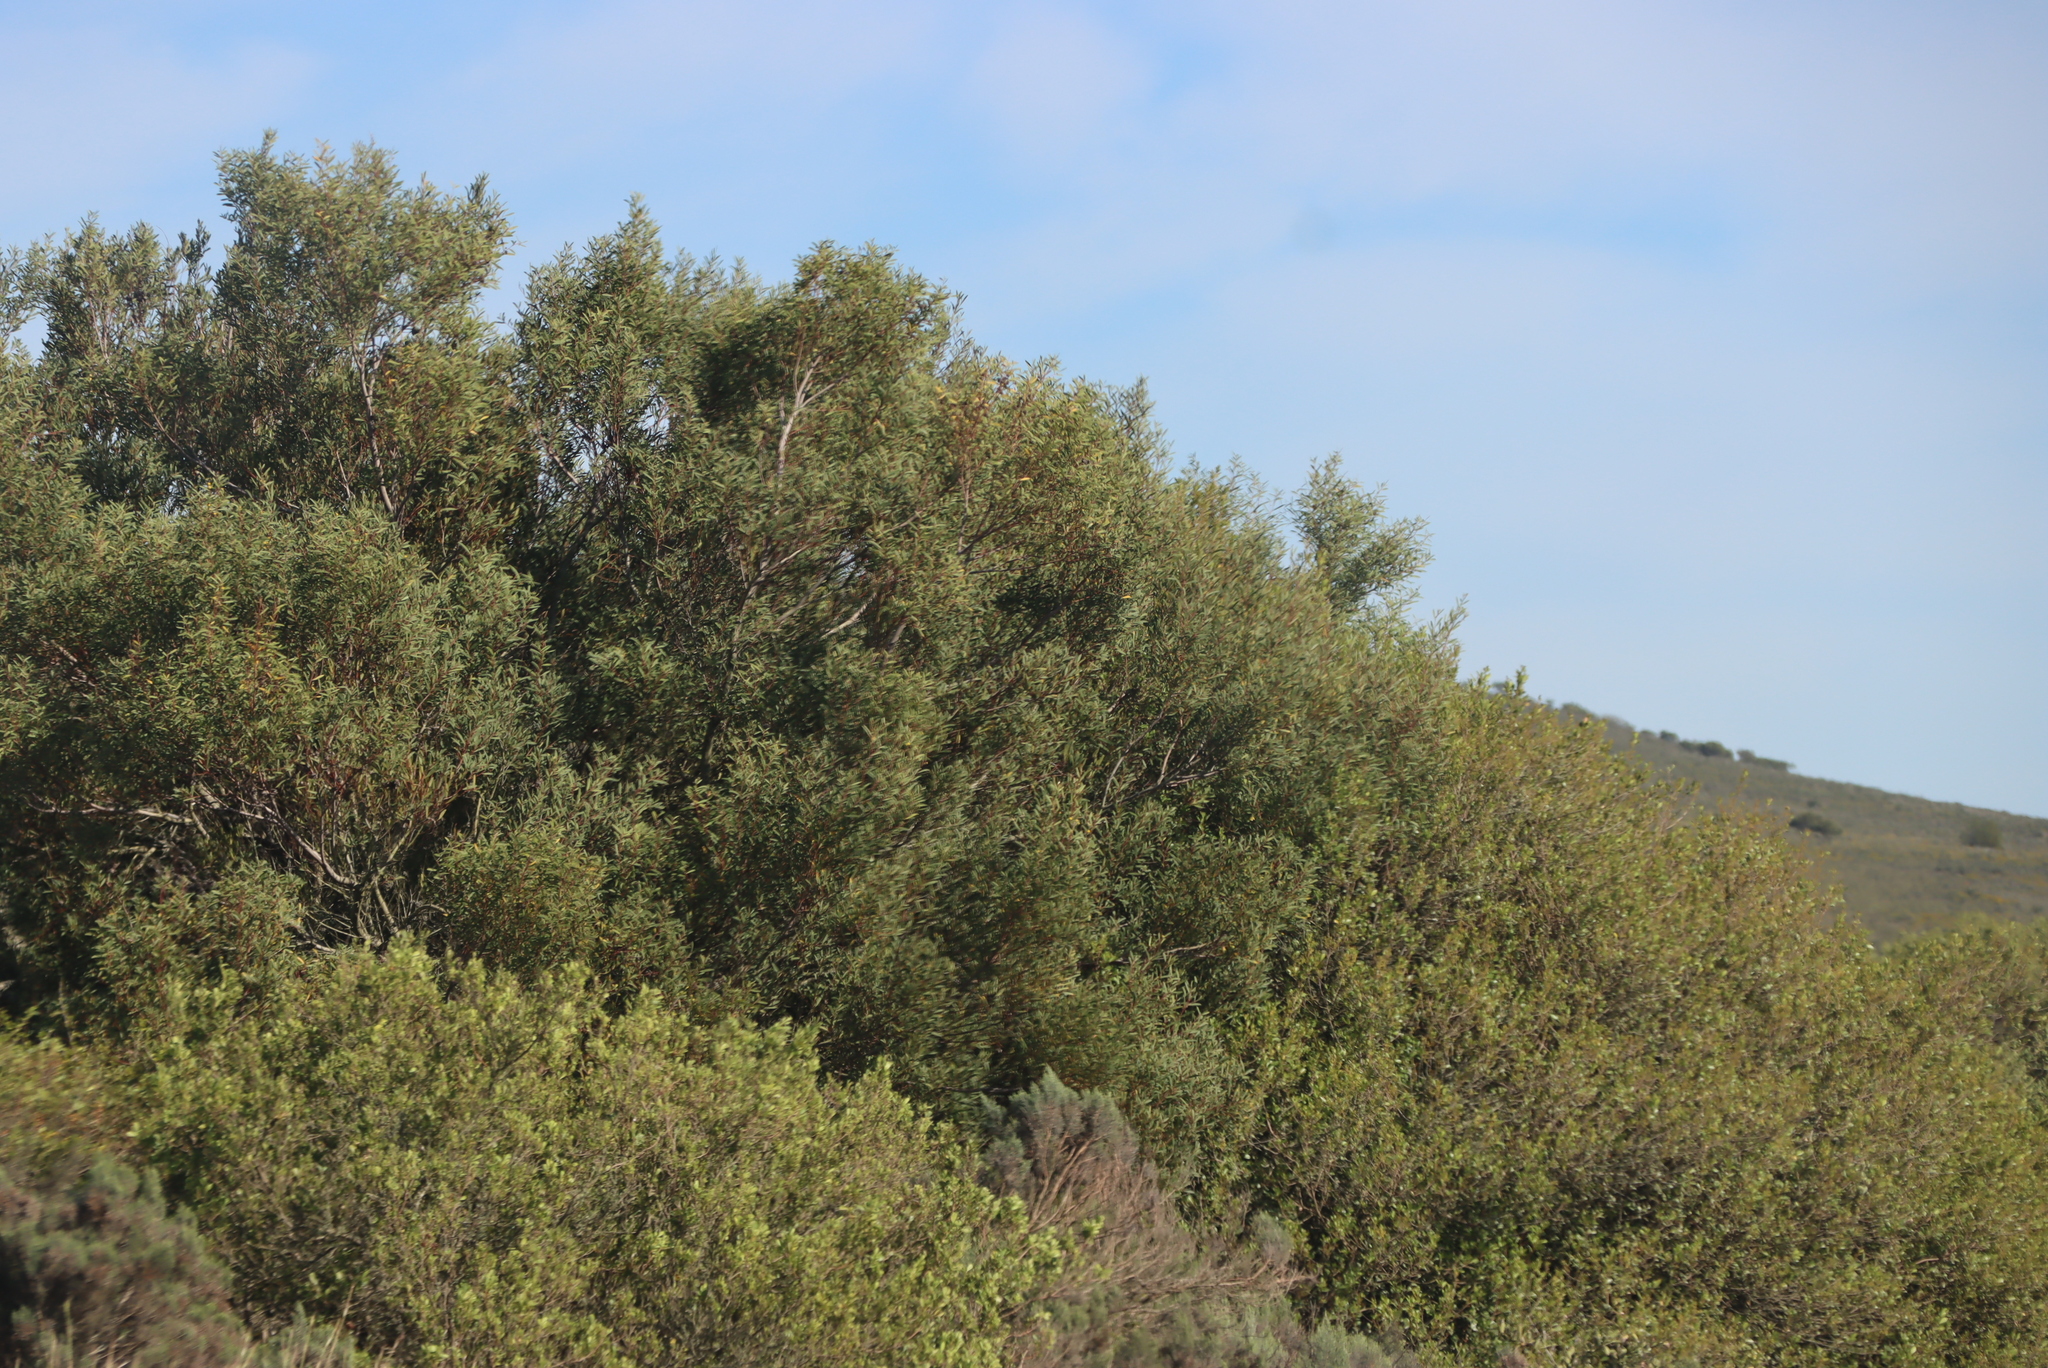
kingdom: Plantae
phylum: Tracheophyta
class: Magnoliopsida
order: Fabales
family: Fabaceae
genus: Acacia
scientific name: Acacia cyclops
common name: Coastal wattle
